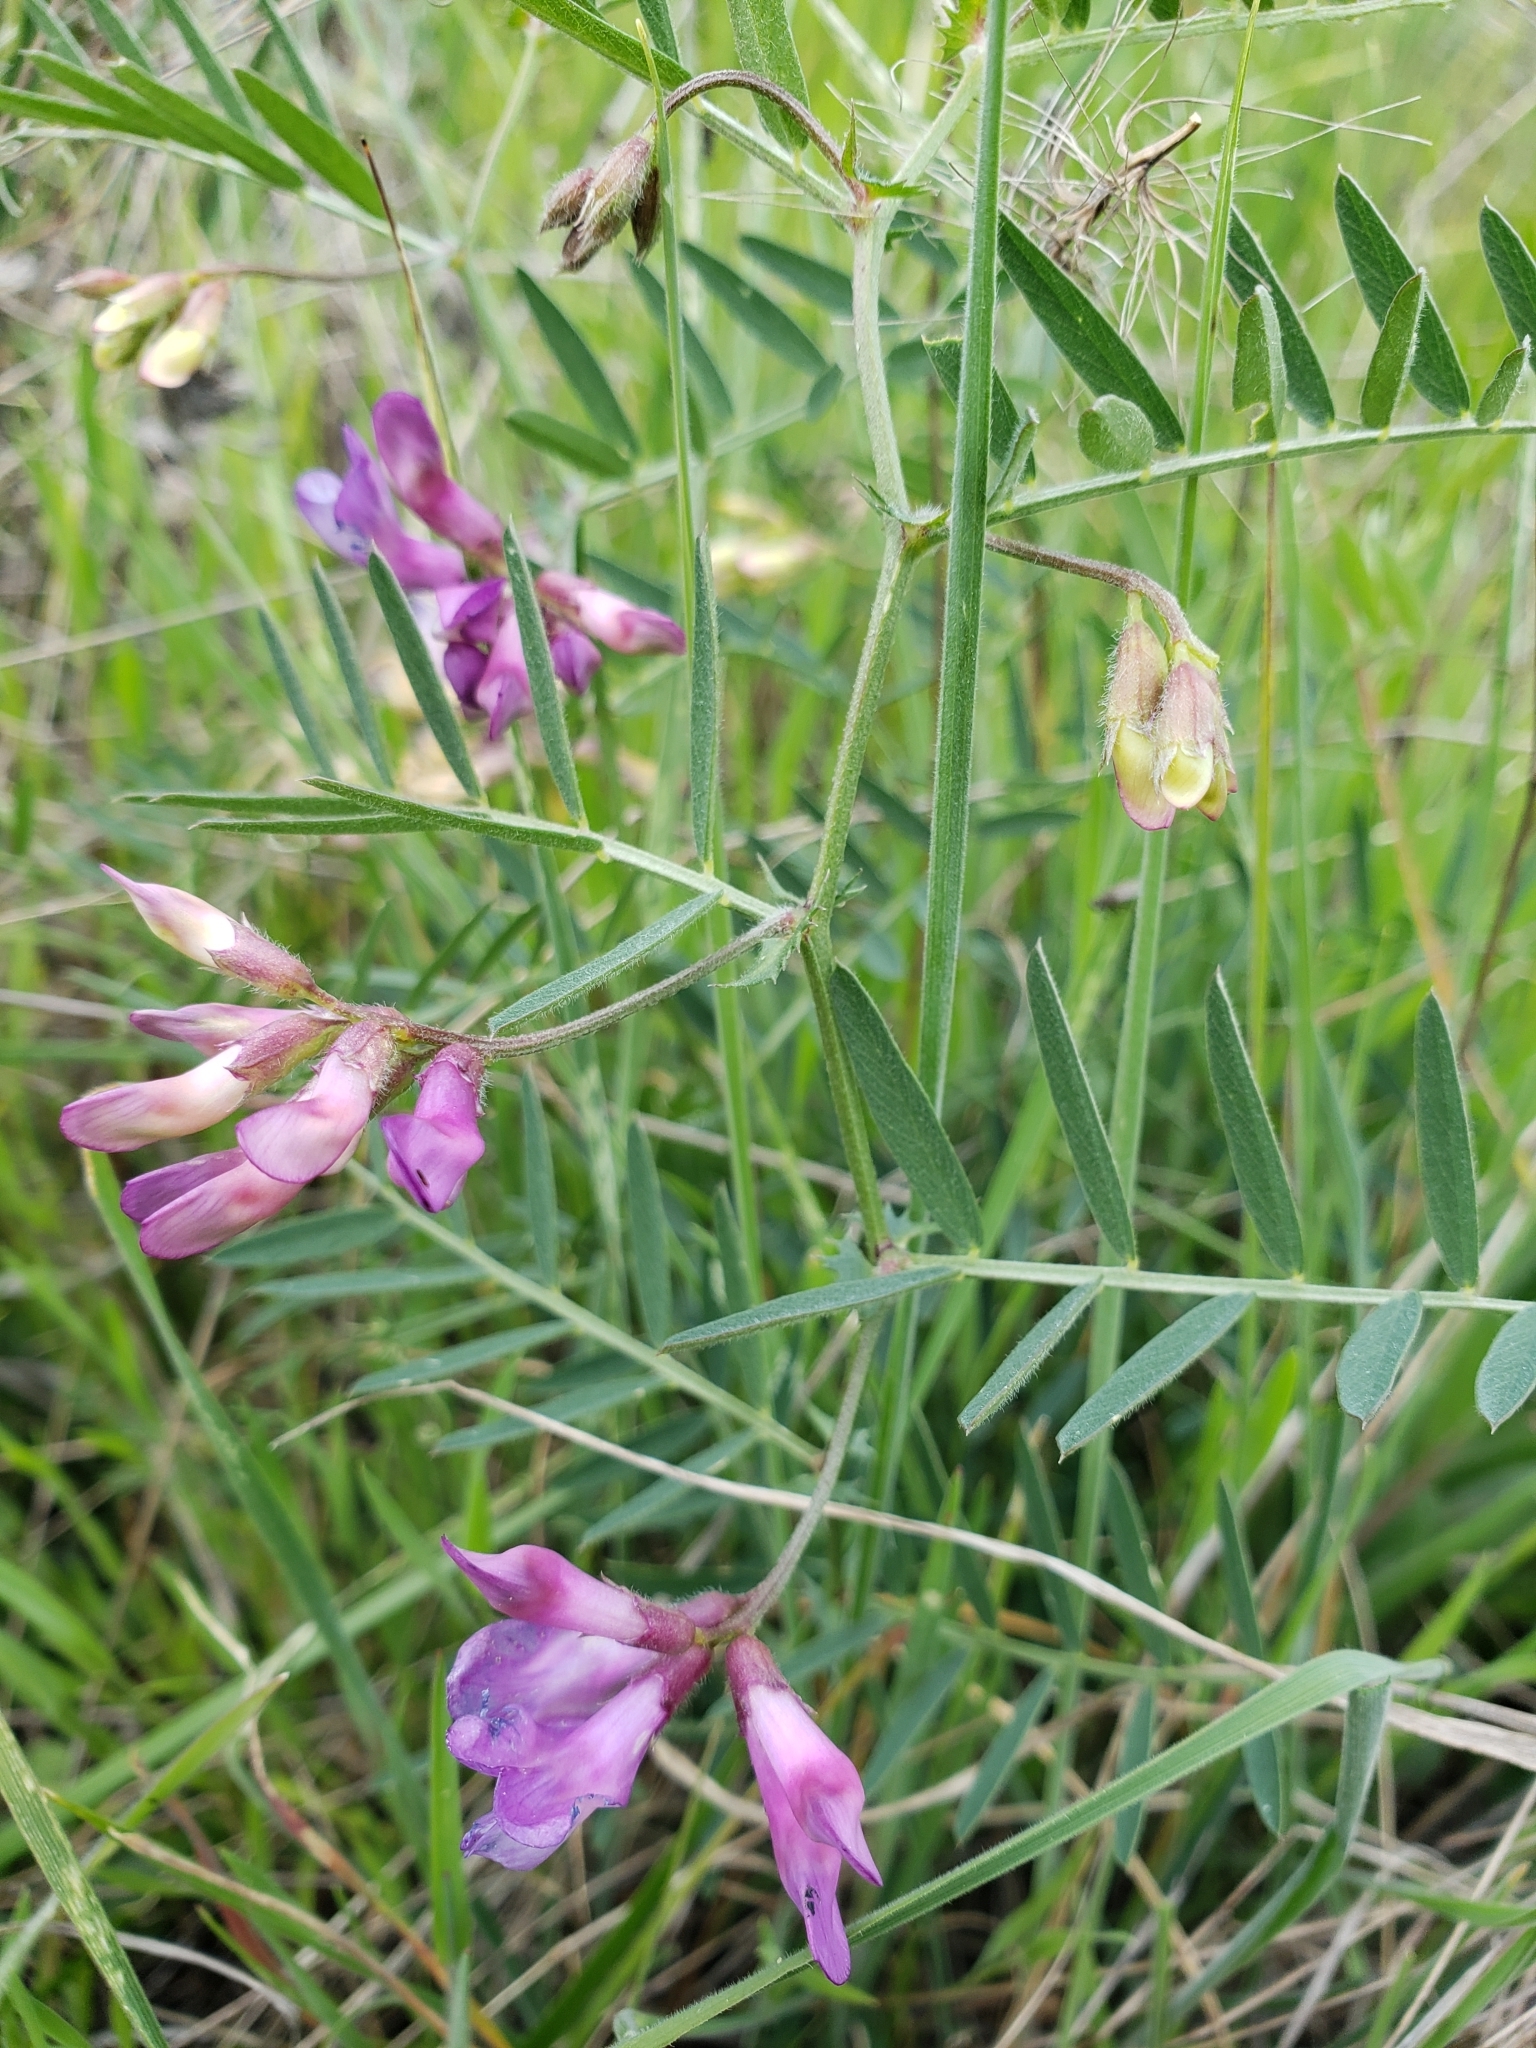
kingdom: Plantae
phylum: Tracheophyta
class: Magnoliopsida
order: Fabales
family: Fabaceae
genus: Vicia
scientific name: Vicia americana
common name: American vetch
